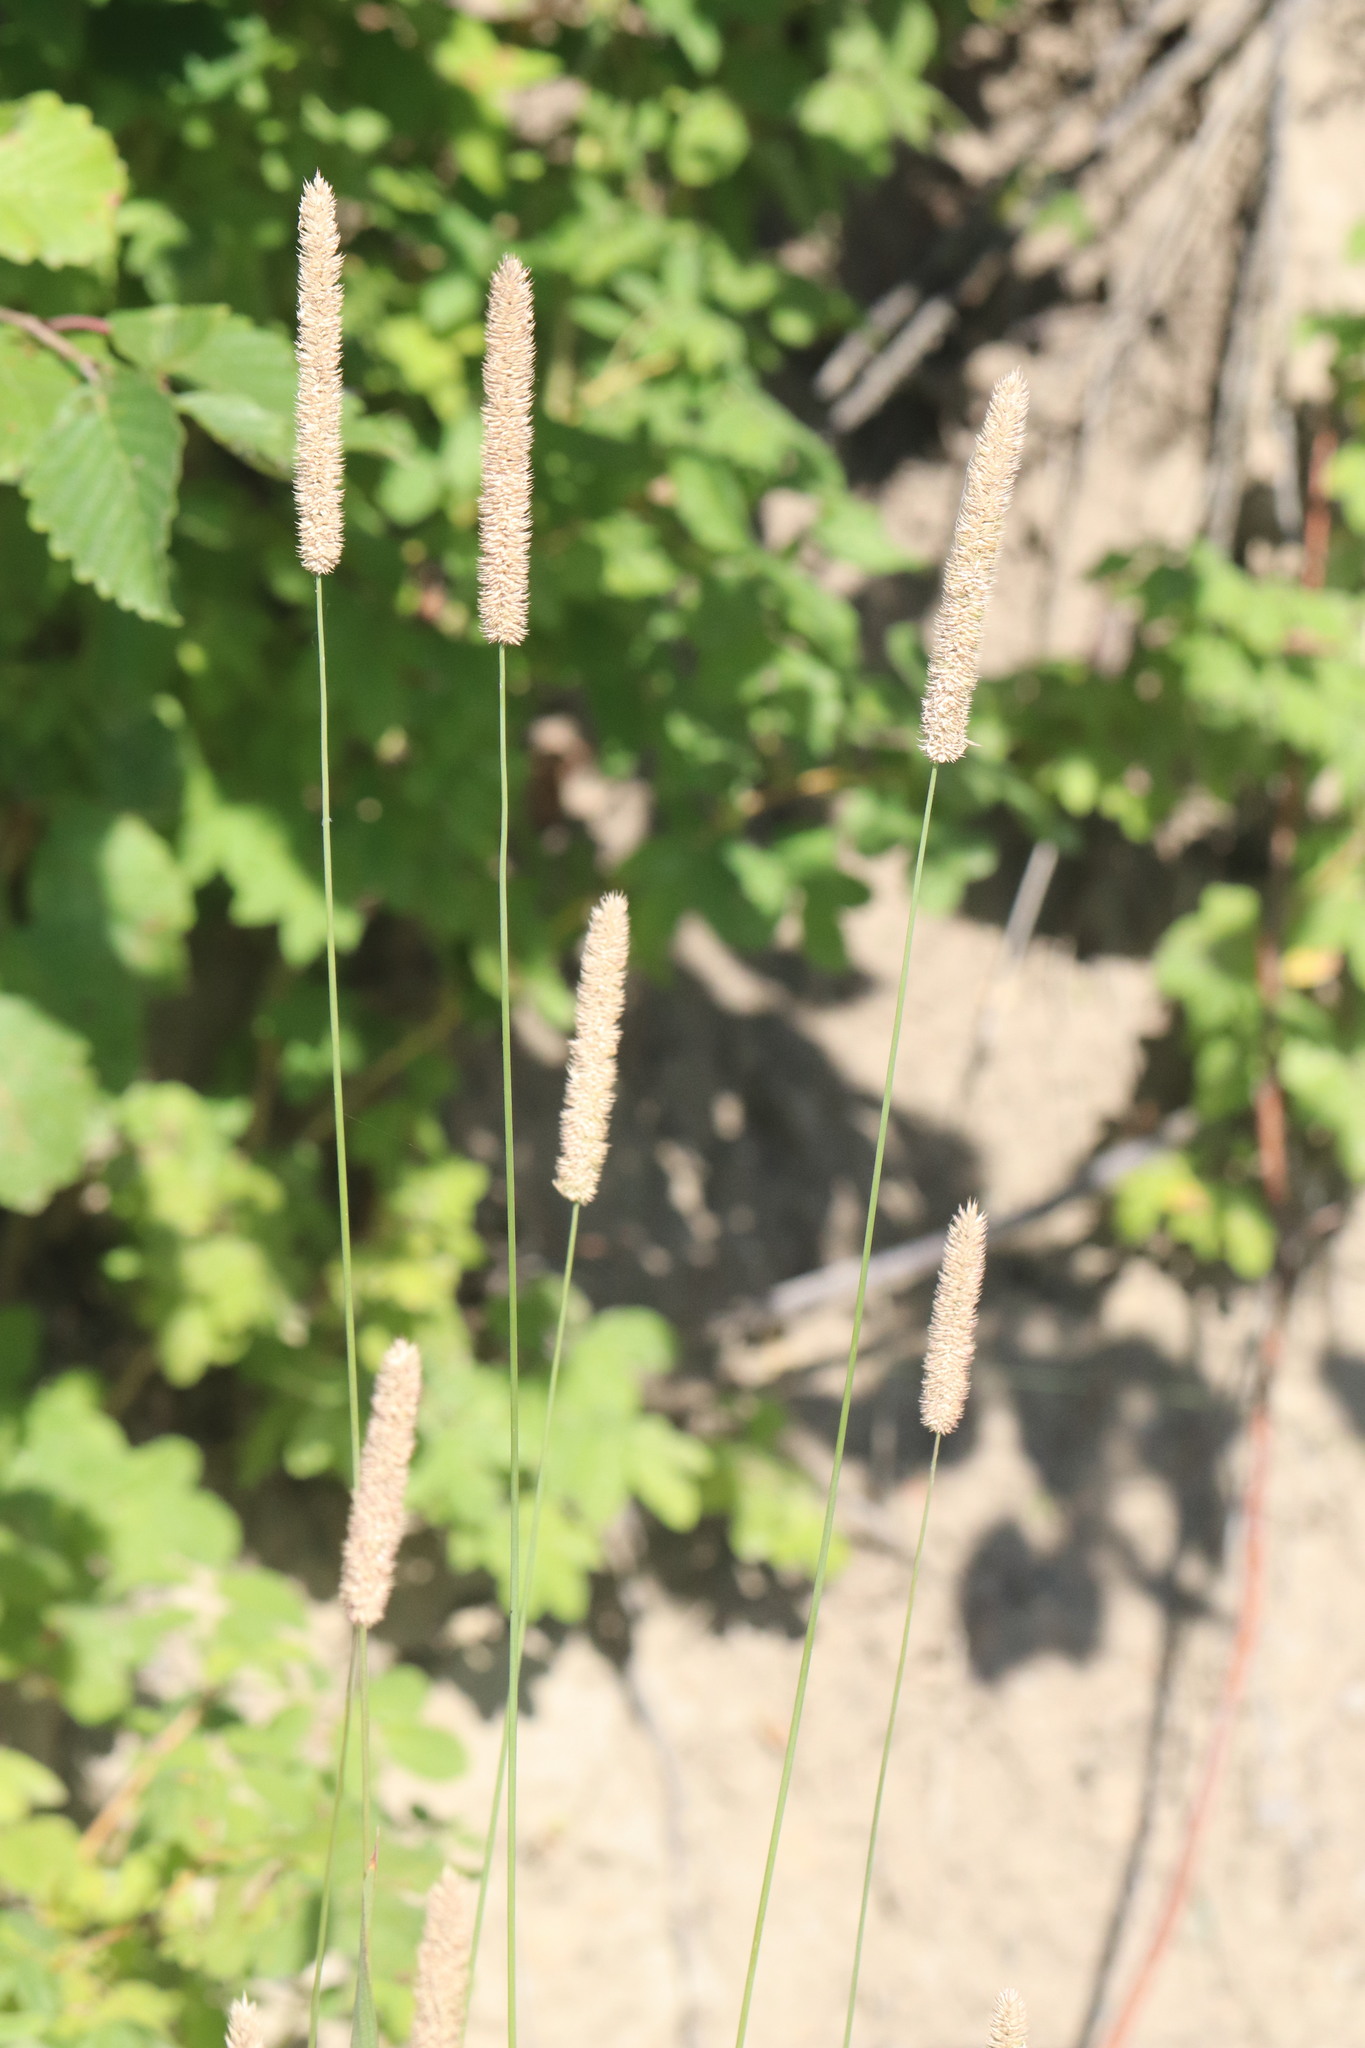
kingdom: Plantae
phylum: Tracheophyta
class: Liliopsida
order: Poales
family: Poaceae
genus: Phleum
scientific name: Phleum pratense
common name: Timothy grass
